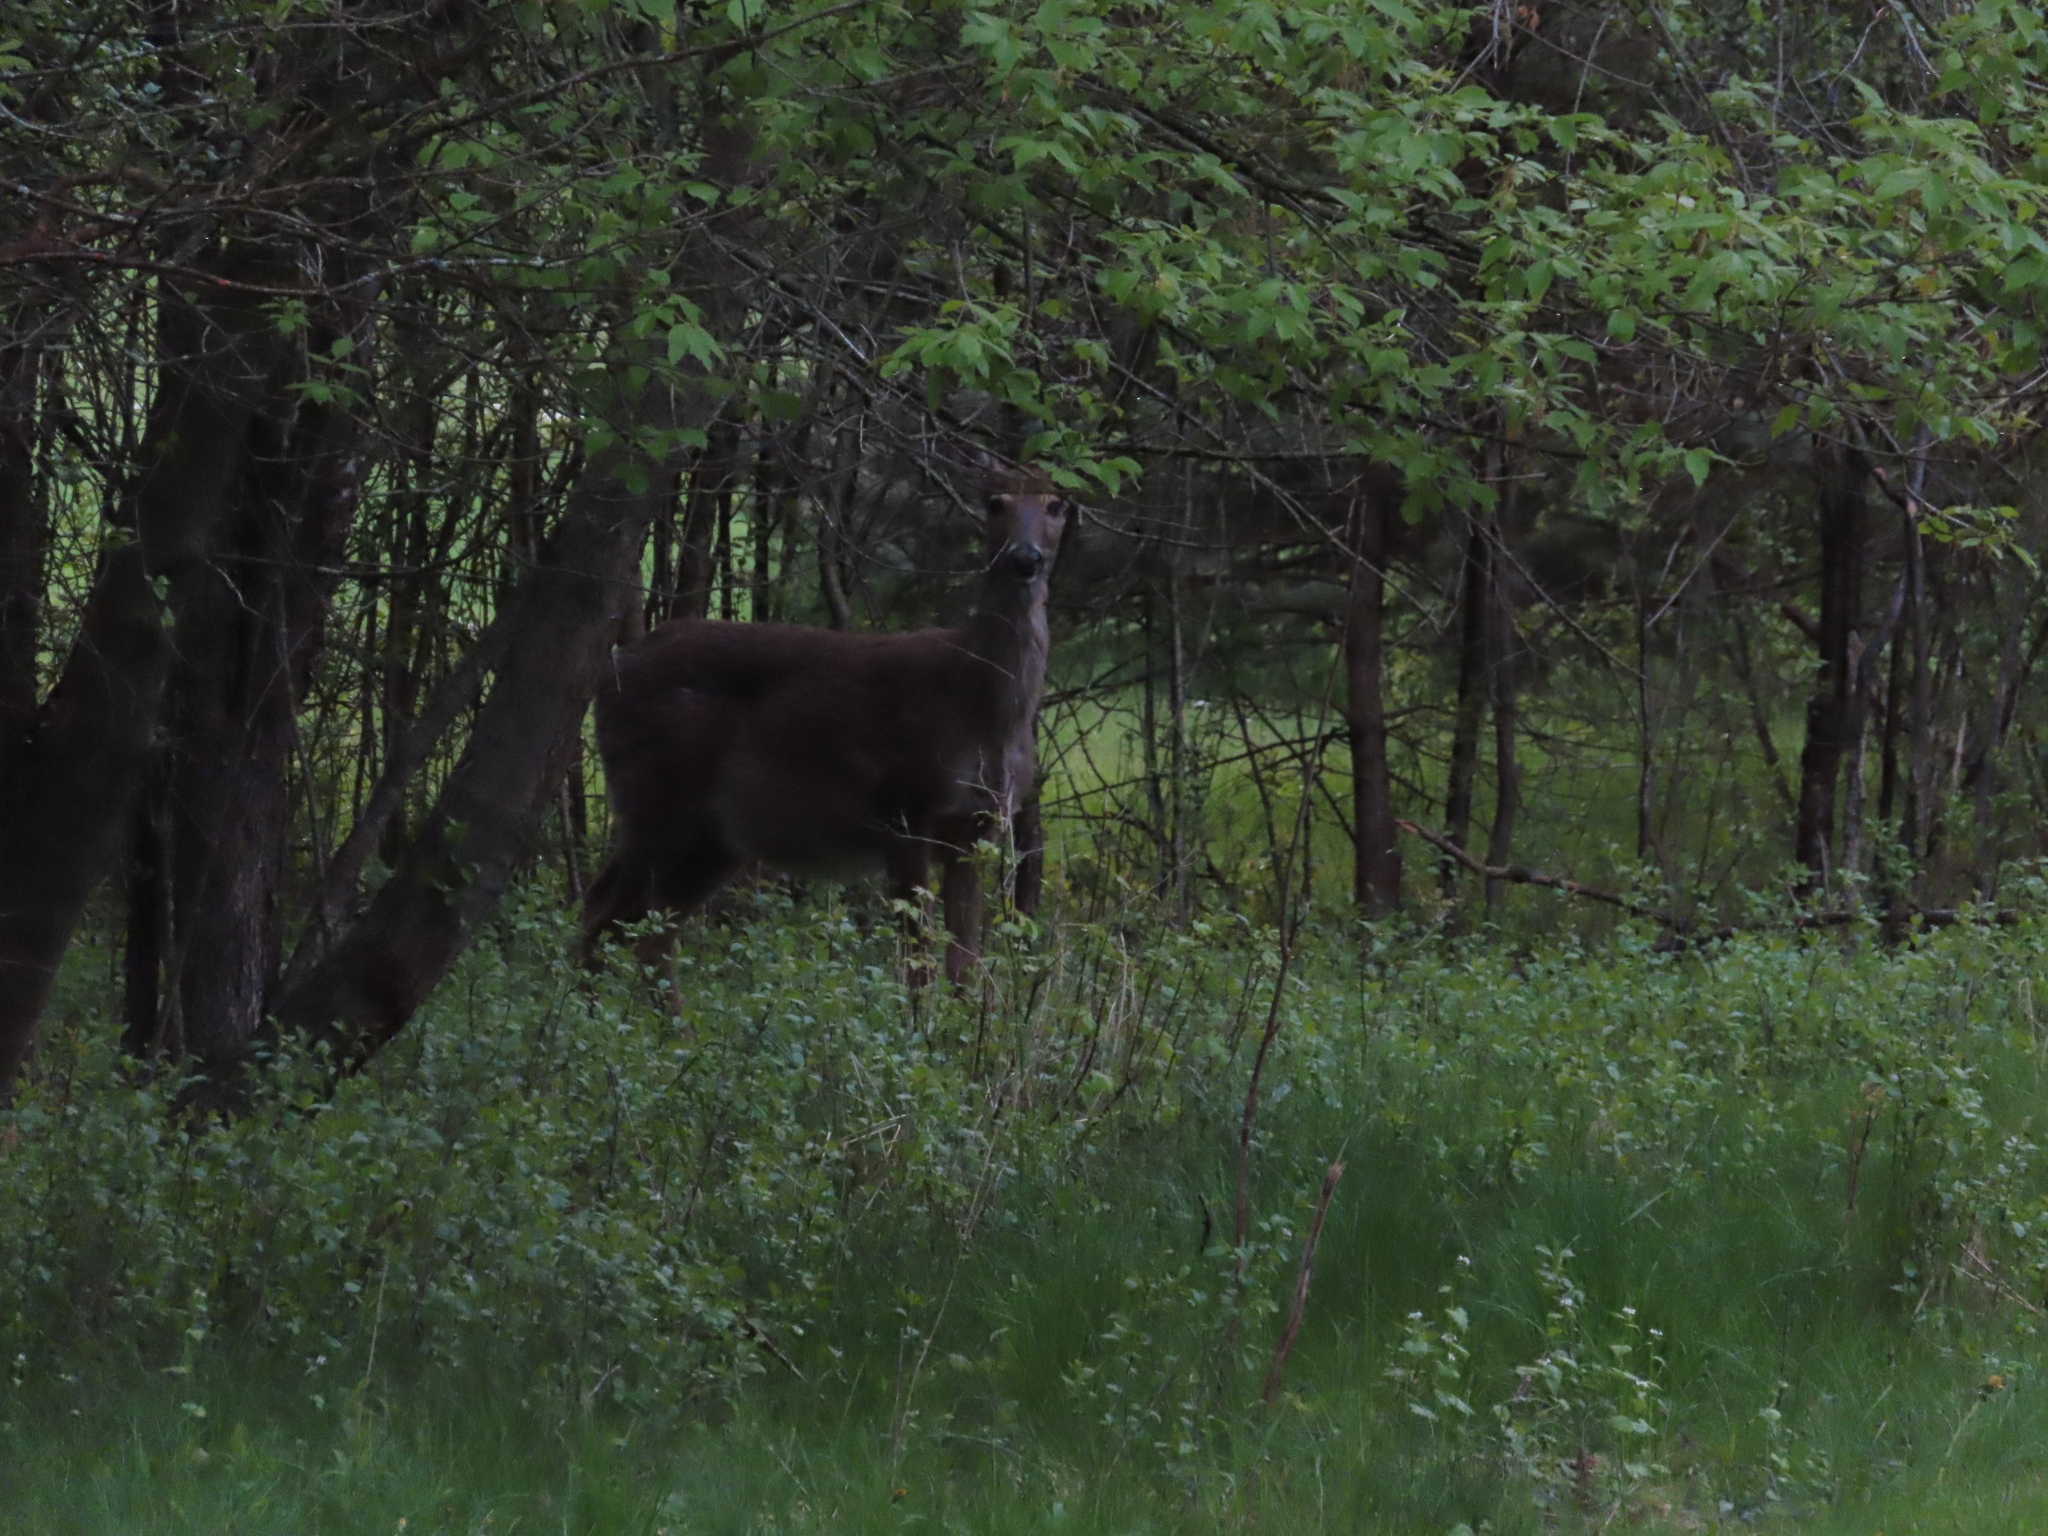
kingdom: Animalia
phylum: Chordata
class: Mammalia
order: Artiodactyla
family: Cervidae
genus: Odocoileus
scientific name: Odocoileus virginianus
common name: White-tailed deer
